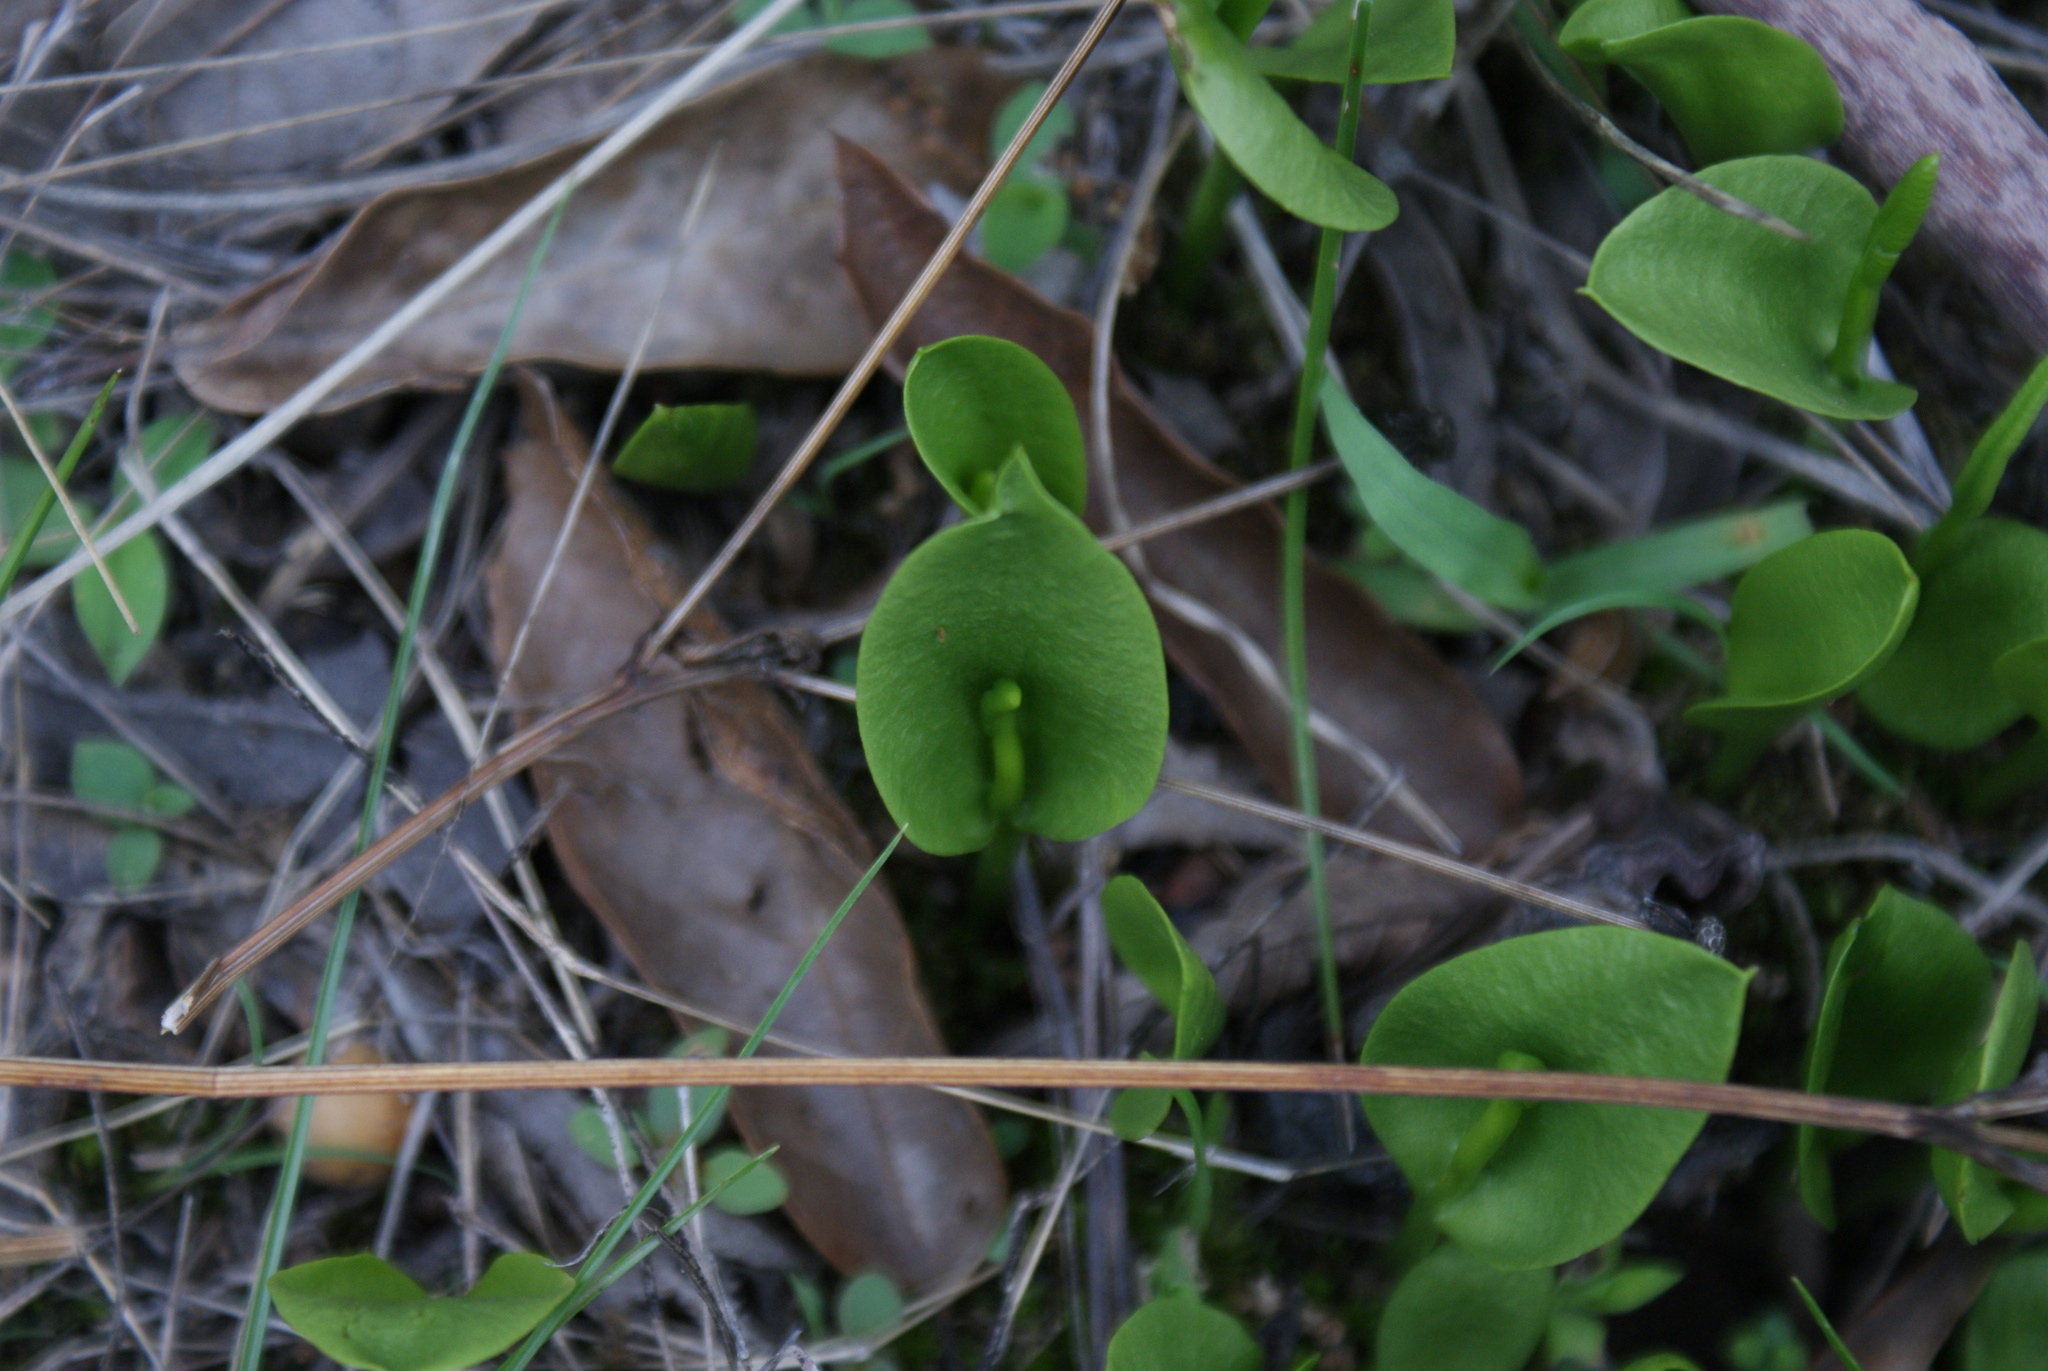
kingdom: Plantae
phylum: Tracheophyta
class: Polypodiopsida
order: Ophioglossales
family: Ophioglossaceae
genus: Ophioglossum
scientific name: Ophioglossum engelmannii
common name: Limestone adder's-tongue
